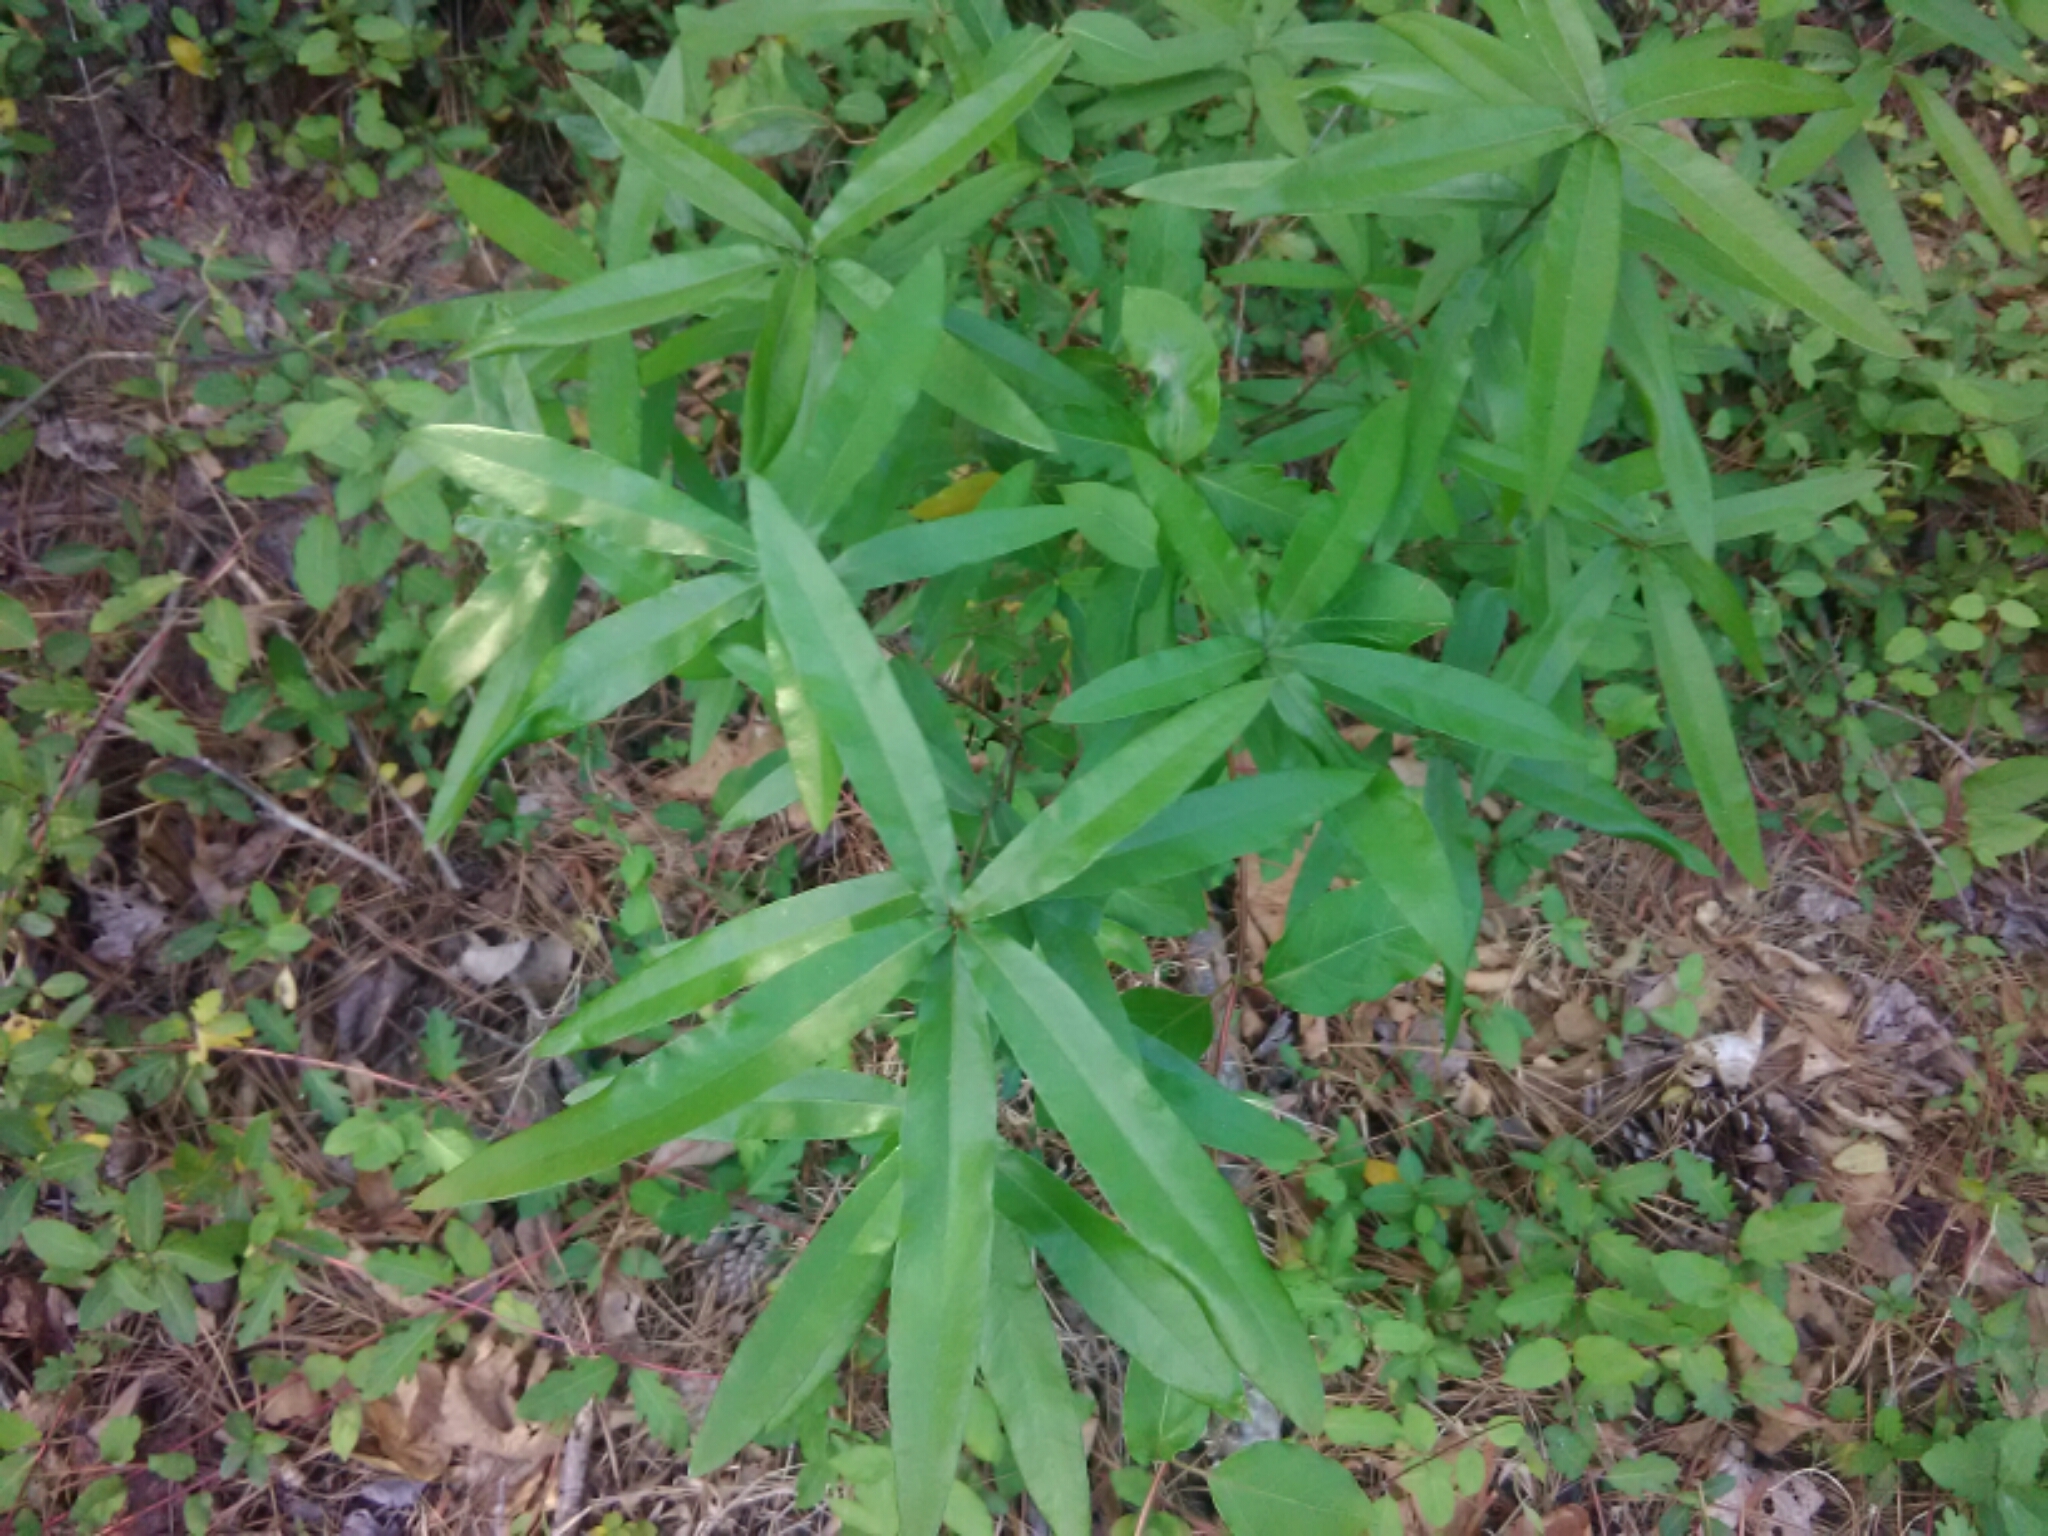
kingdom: Plantae
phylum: Tracheophyta
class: Magnoliopsida
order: Fagales
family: Fagaceae
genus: Quercus
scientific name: Quercus phellos
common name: Willow oak
